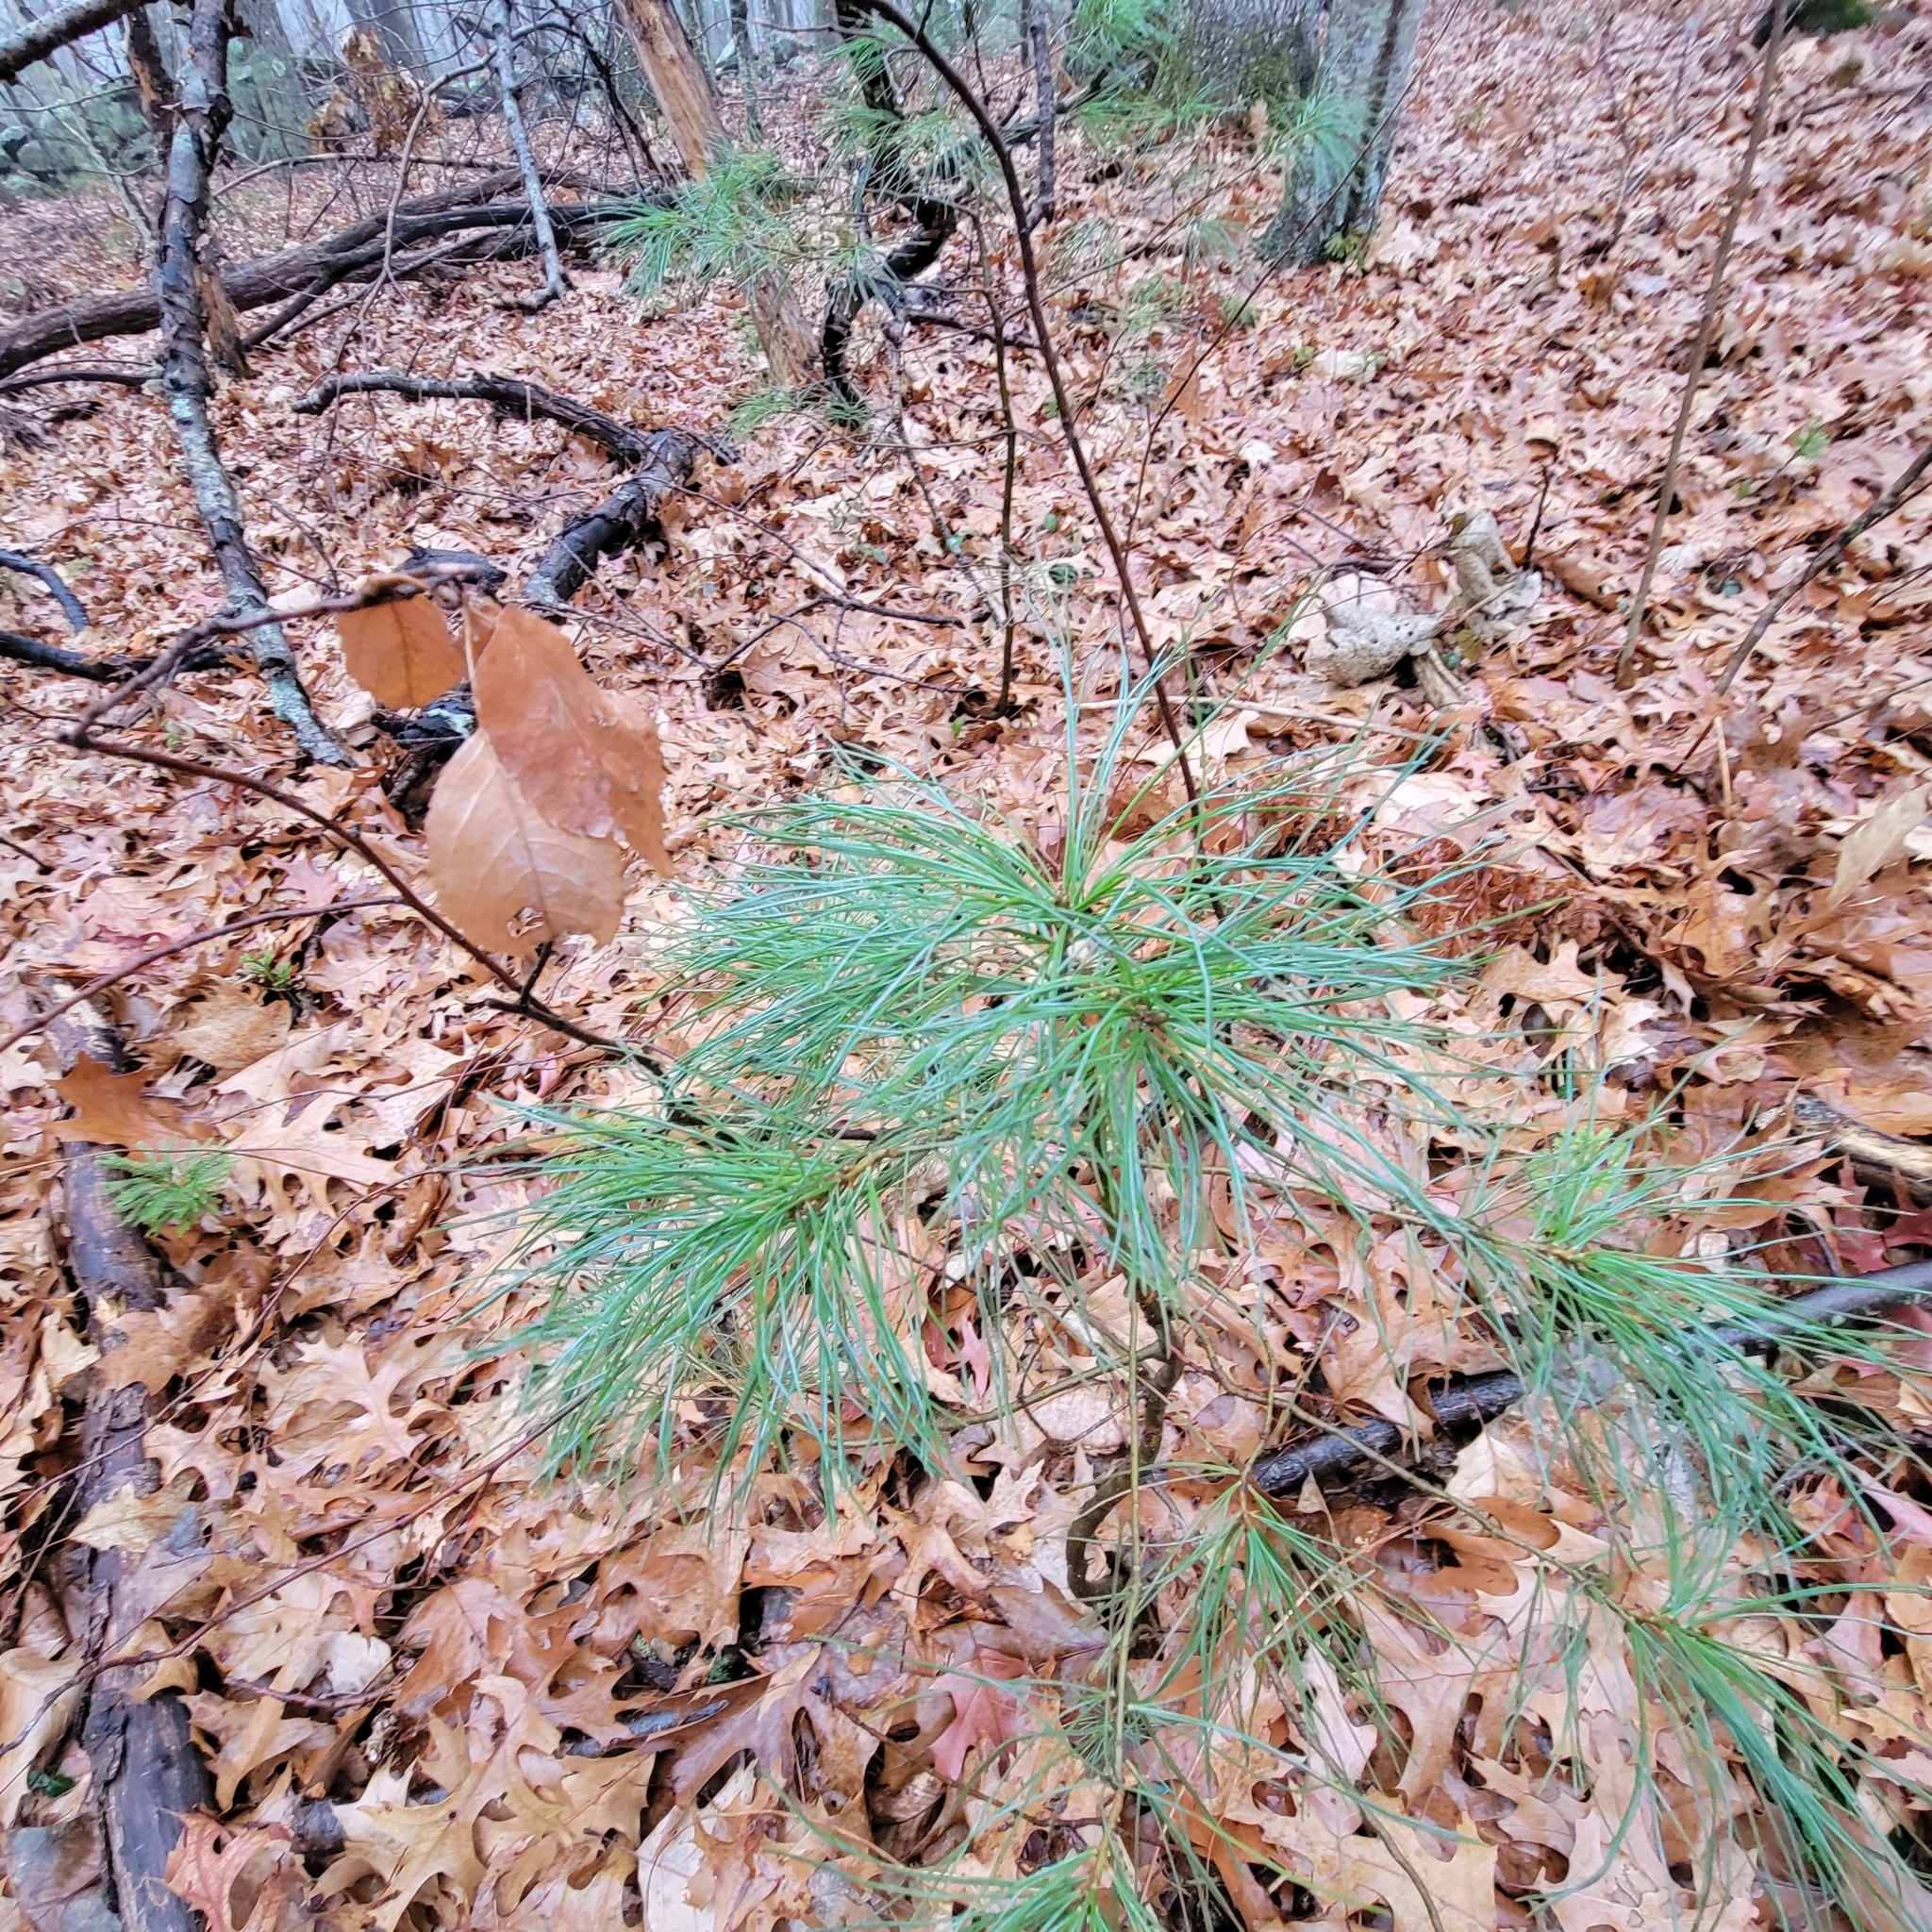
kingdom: Plantae
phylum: Tracheophyta
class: Pinopsida
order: Pinales
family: Pinaceae
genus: Pinus
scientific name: Pinus strobus
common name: Weymouth pine
